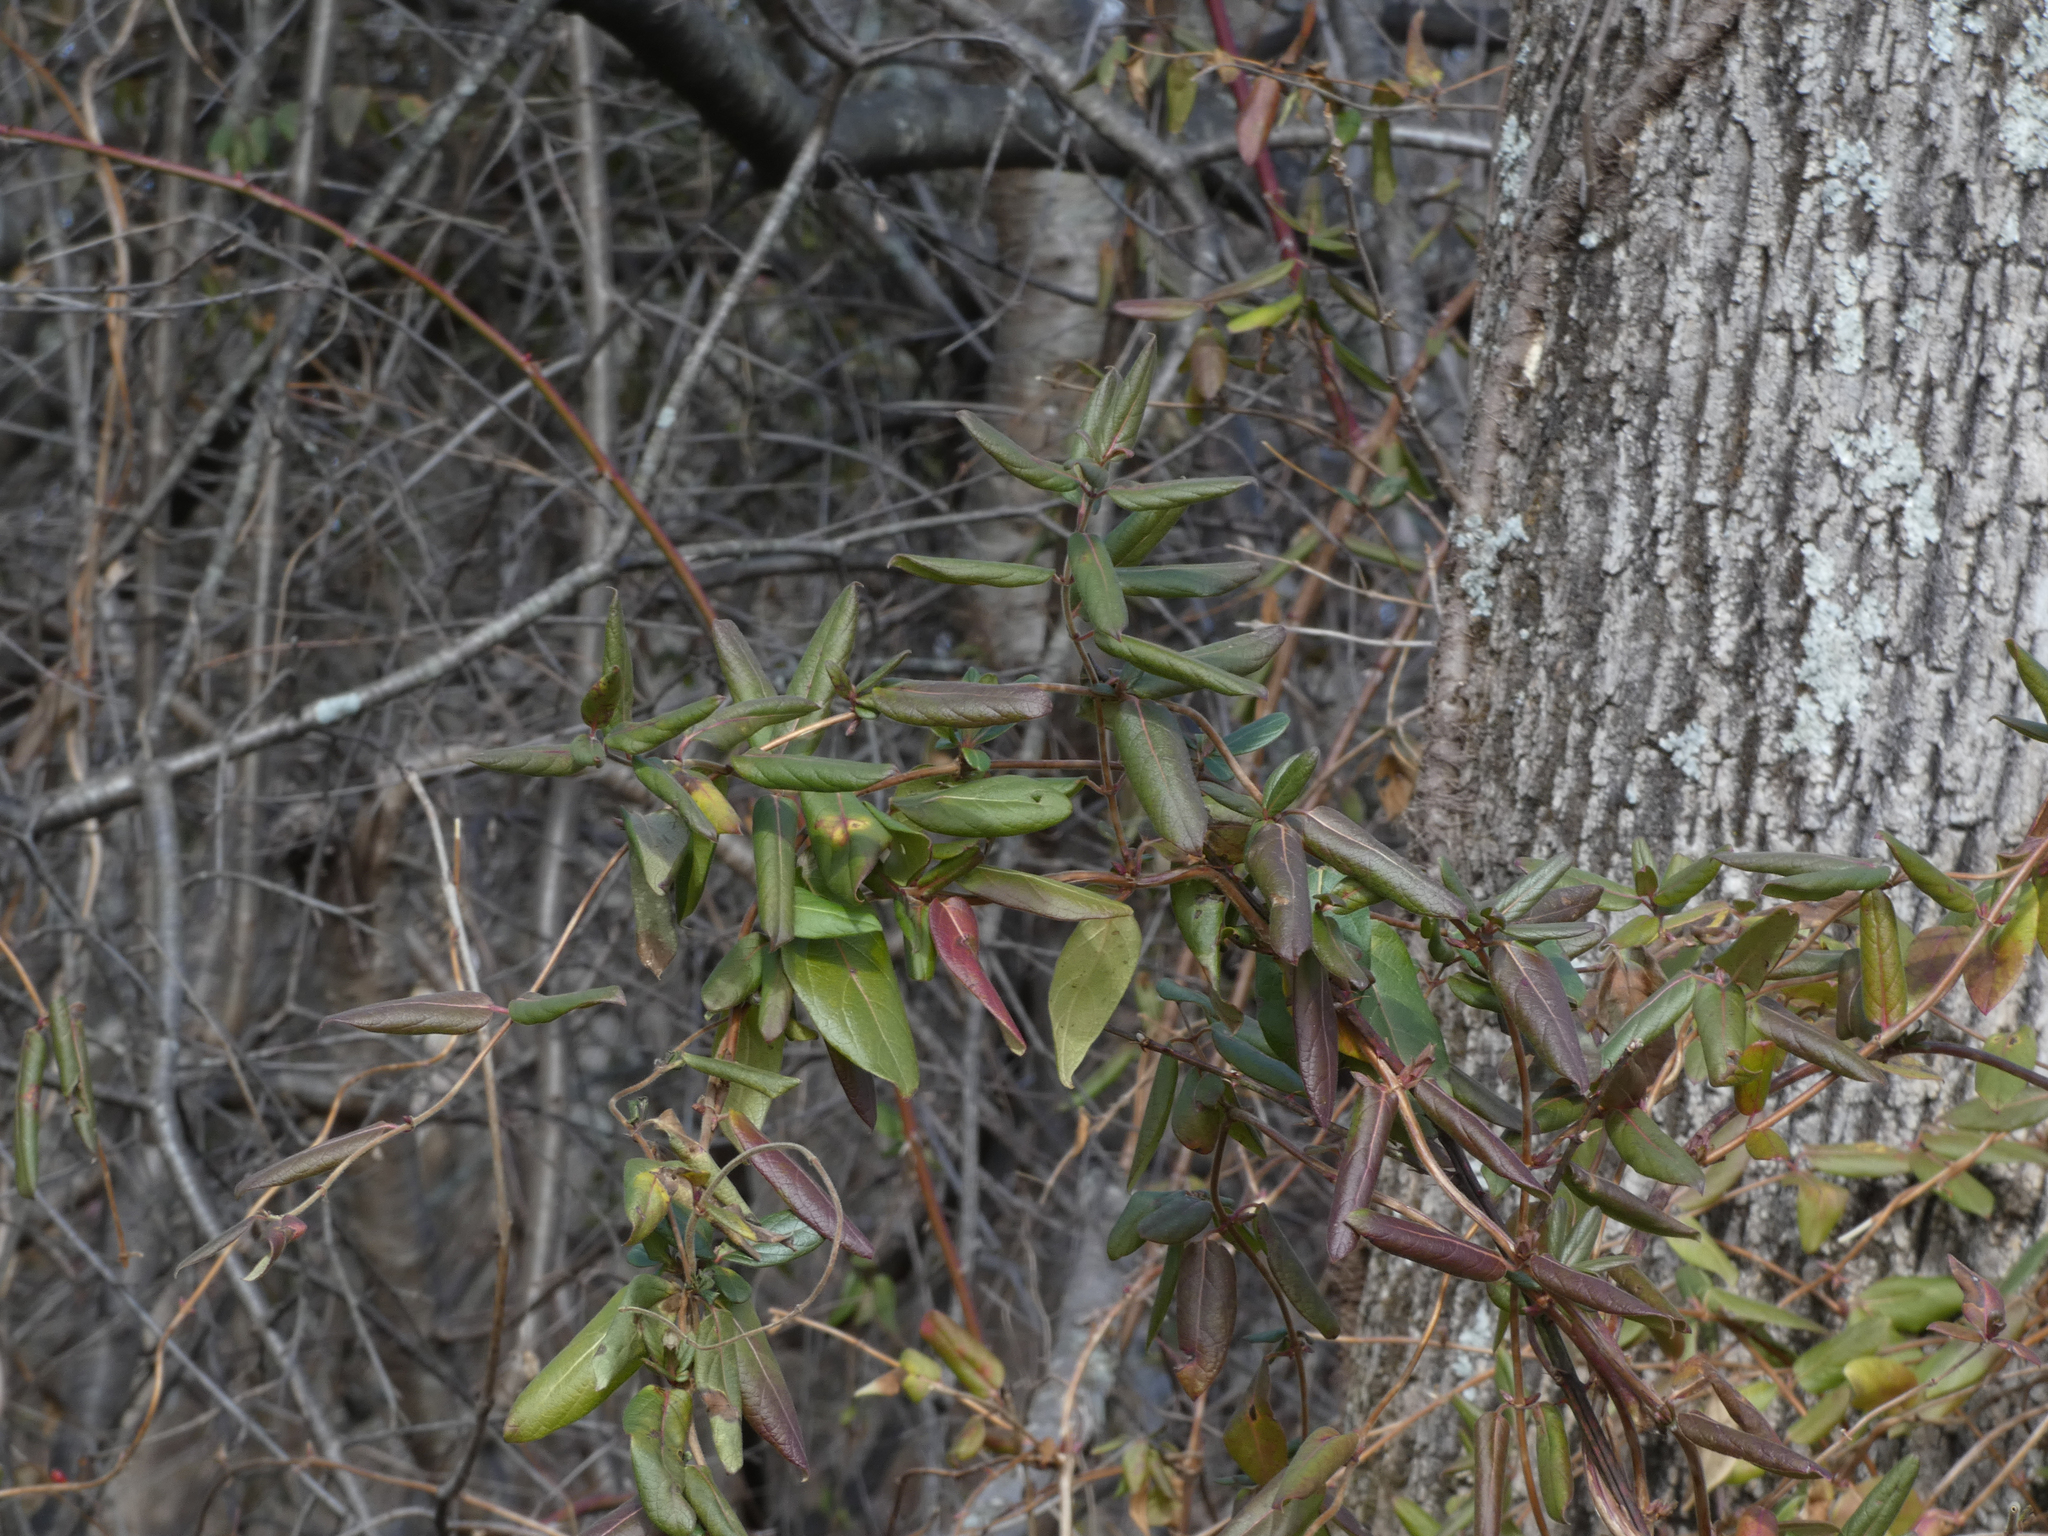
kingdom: Plantae
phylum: Tracheophyta
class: Magnoliopsida
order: Dipsacales
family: Caprifoliaceae
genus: Lonicera
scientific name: Lonicera japonica
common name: Japanese honeysuckle
